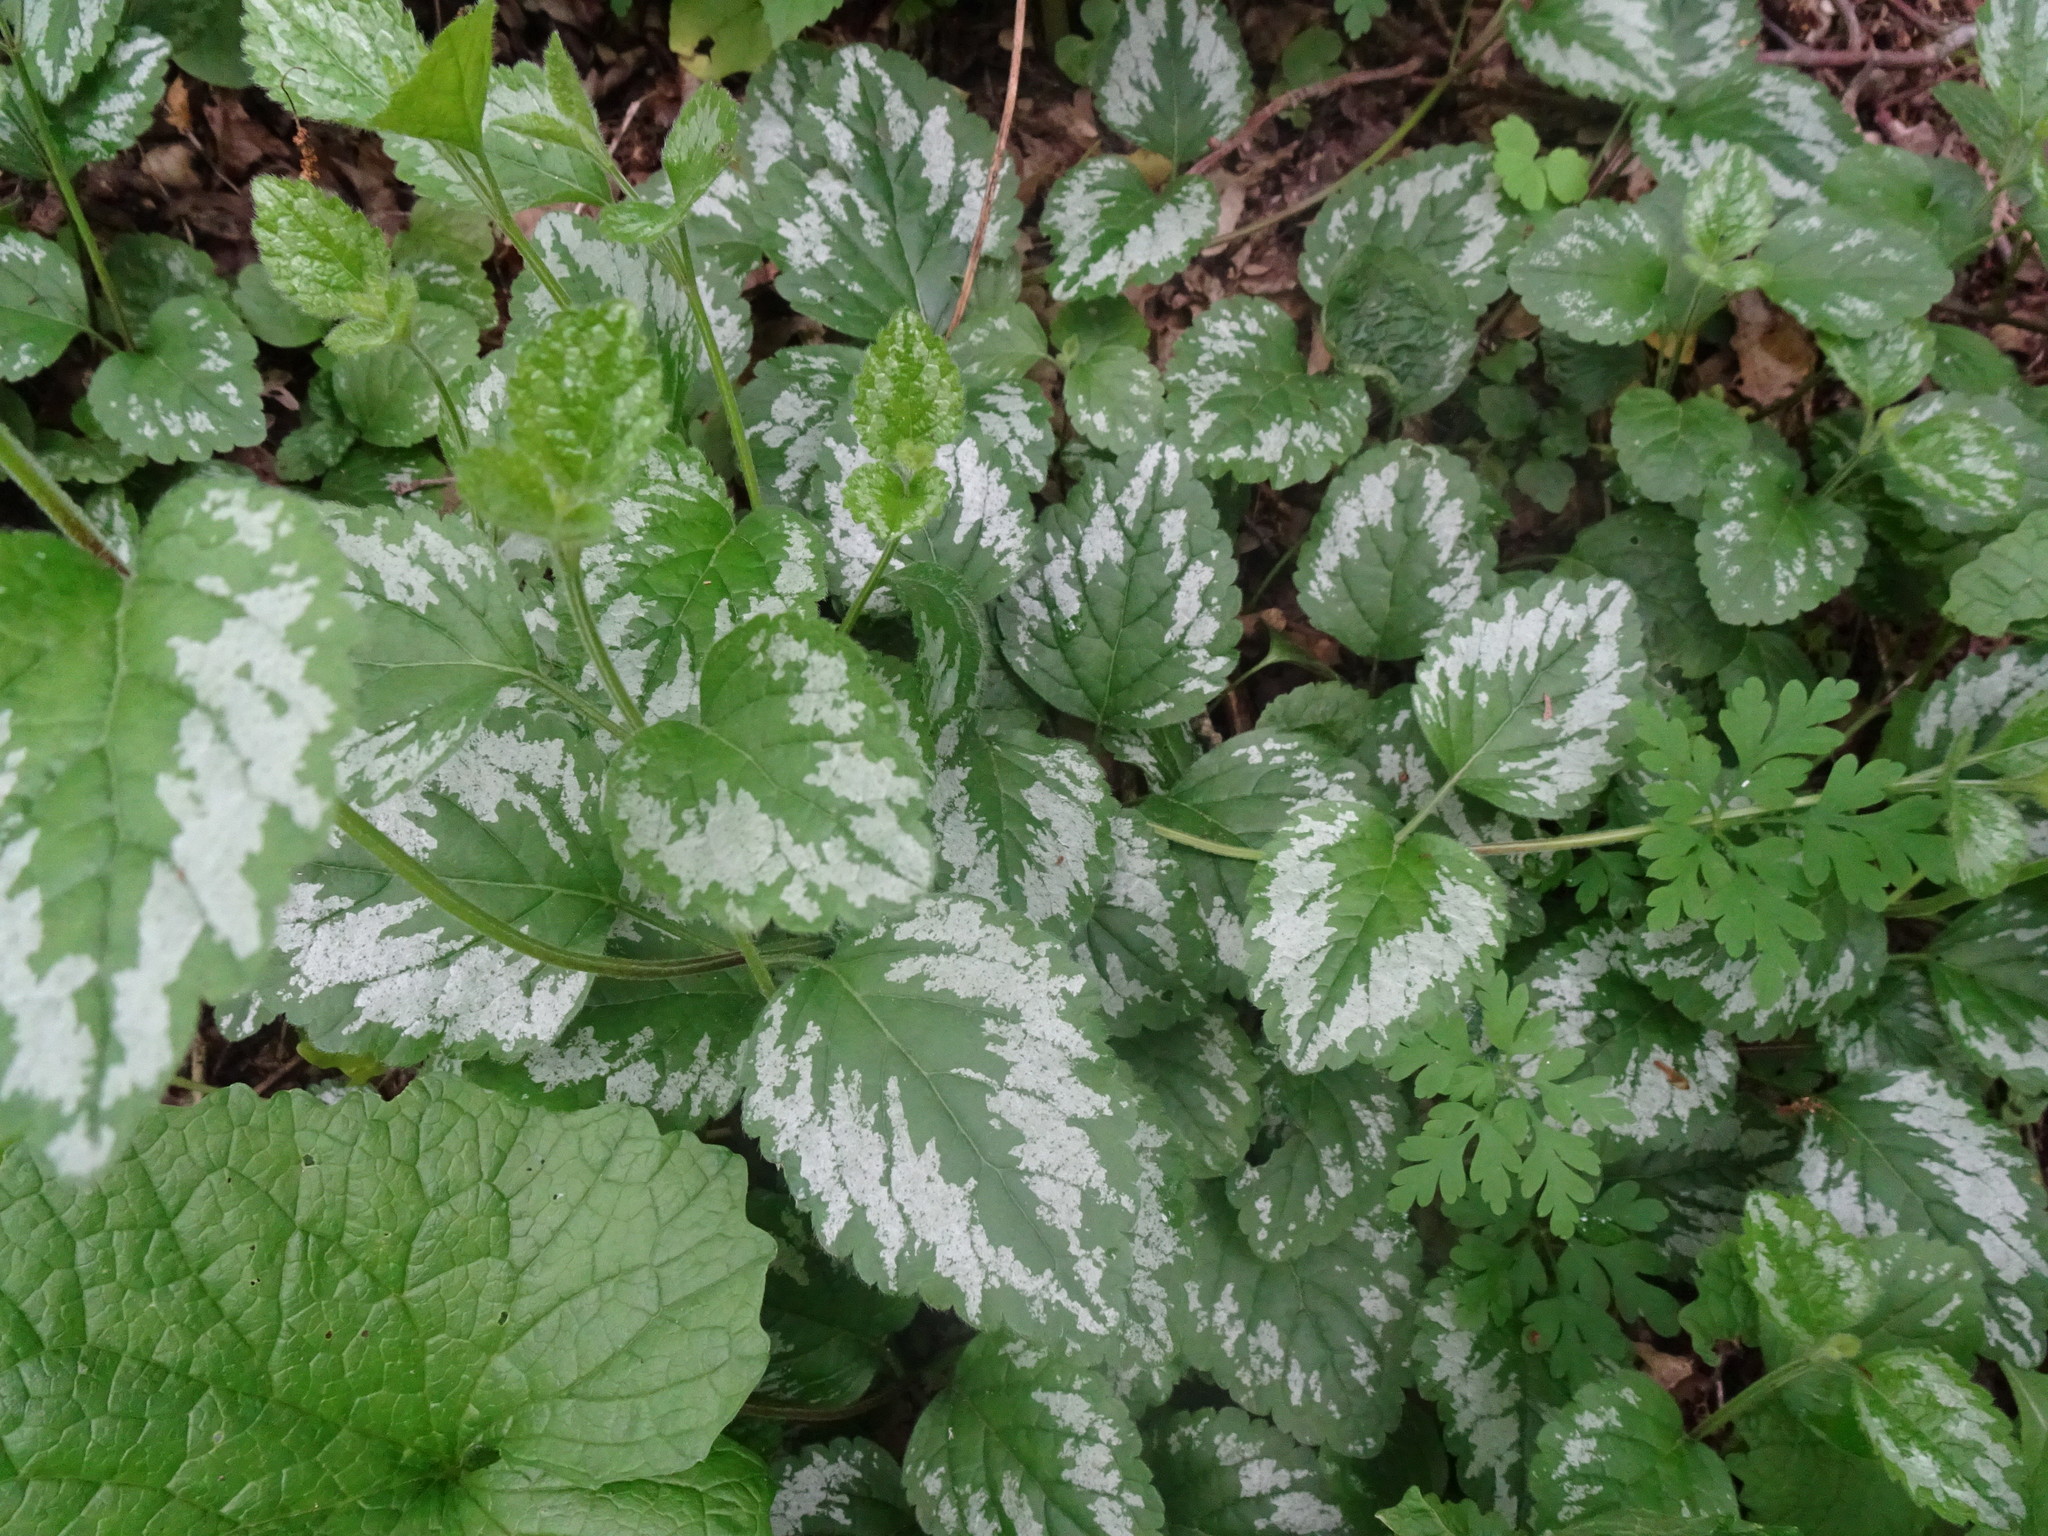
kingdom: Plantae
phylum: Tracheophyta
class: Magnoliopsida
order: Lamiales
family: Lamiaceae
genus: Lamium
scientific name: Lamium galeobdolon
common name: Yellow archangel
